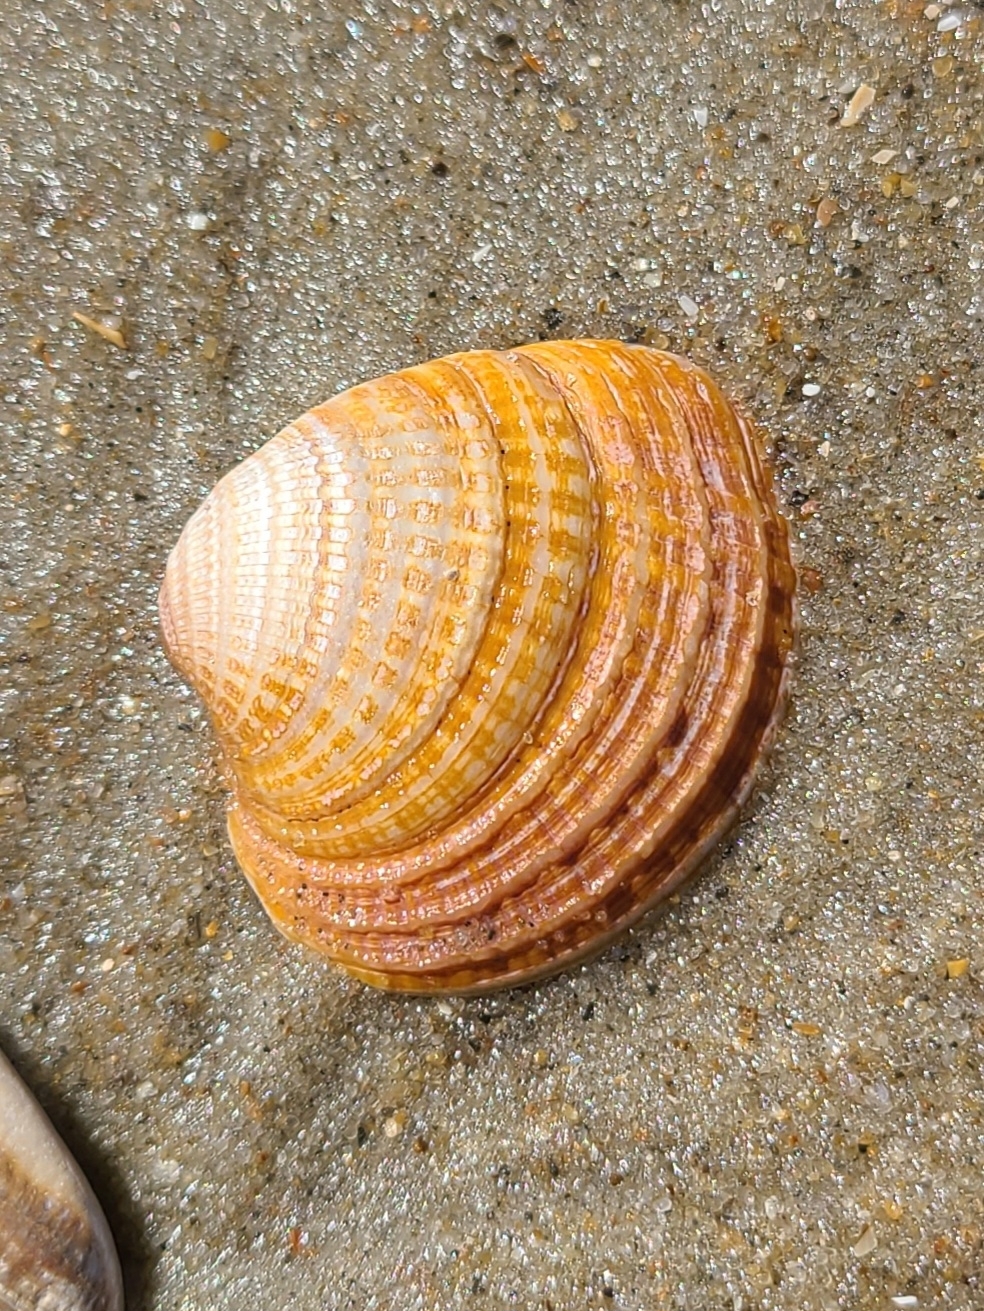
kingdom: Animalia
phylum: Mollusca
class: Bivalvia
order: Venerida
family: Veneridae
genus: Chione
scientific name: Chione elevata
